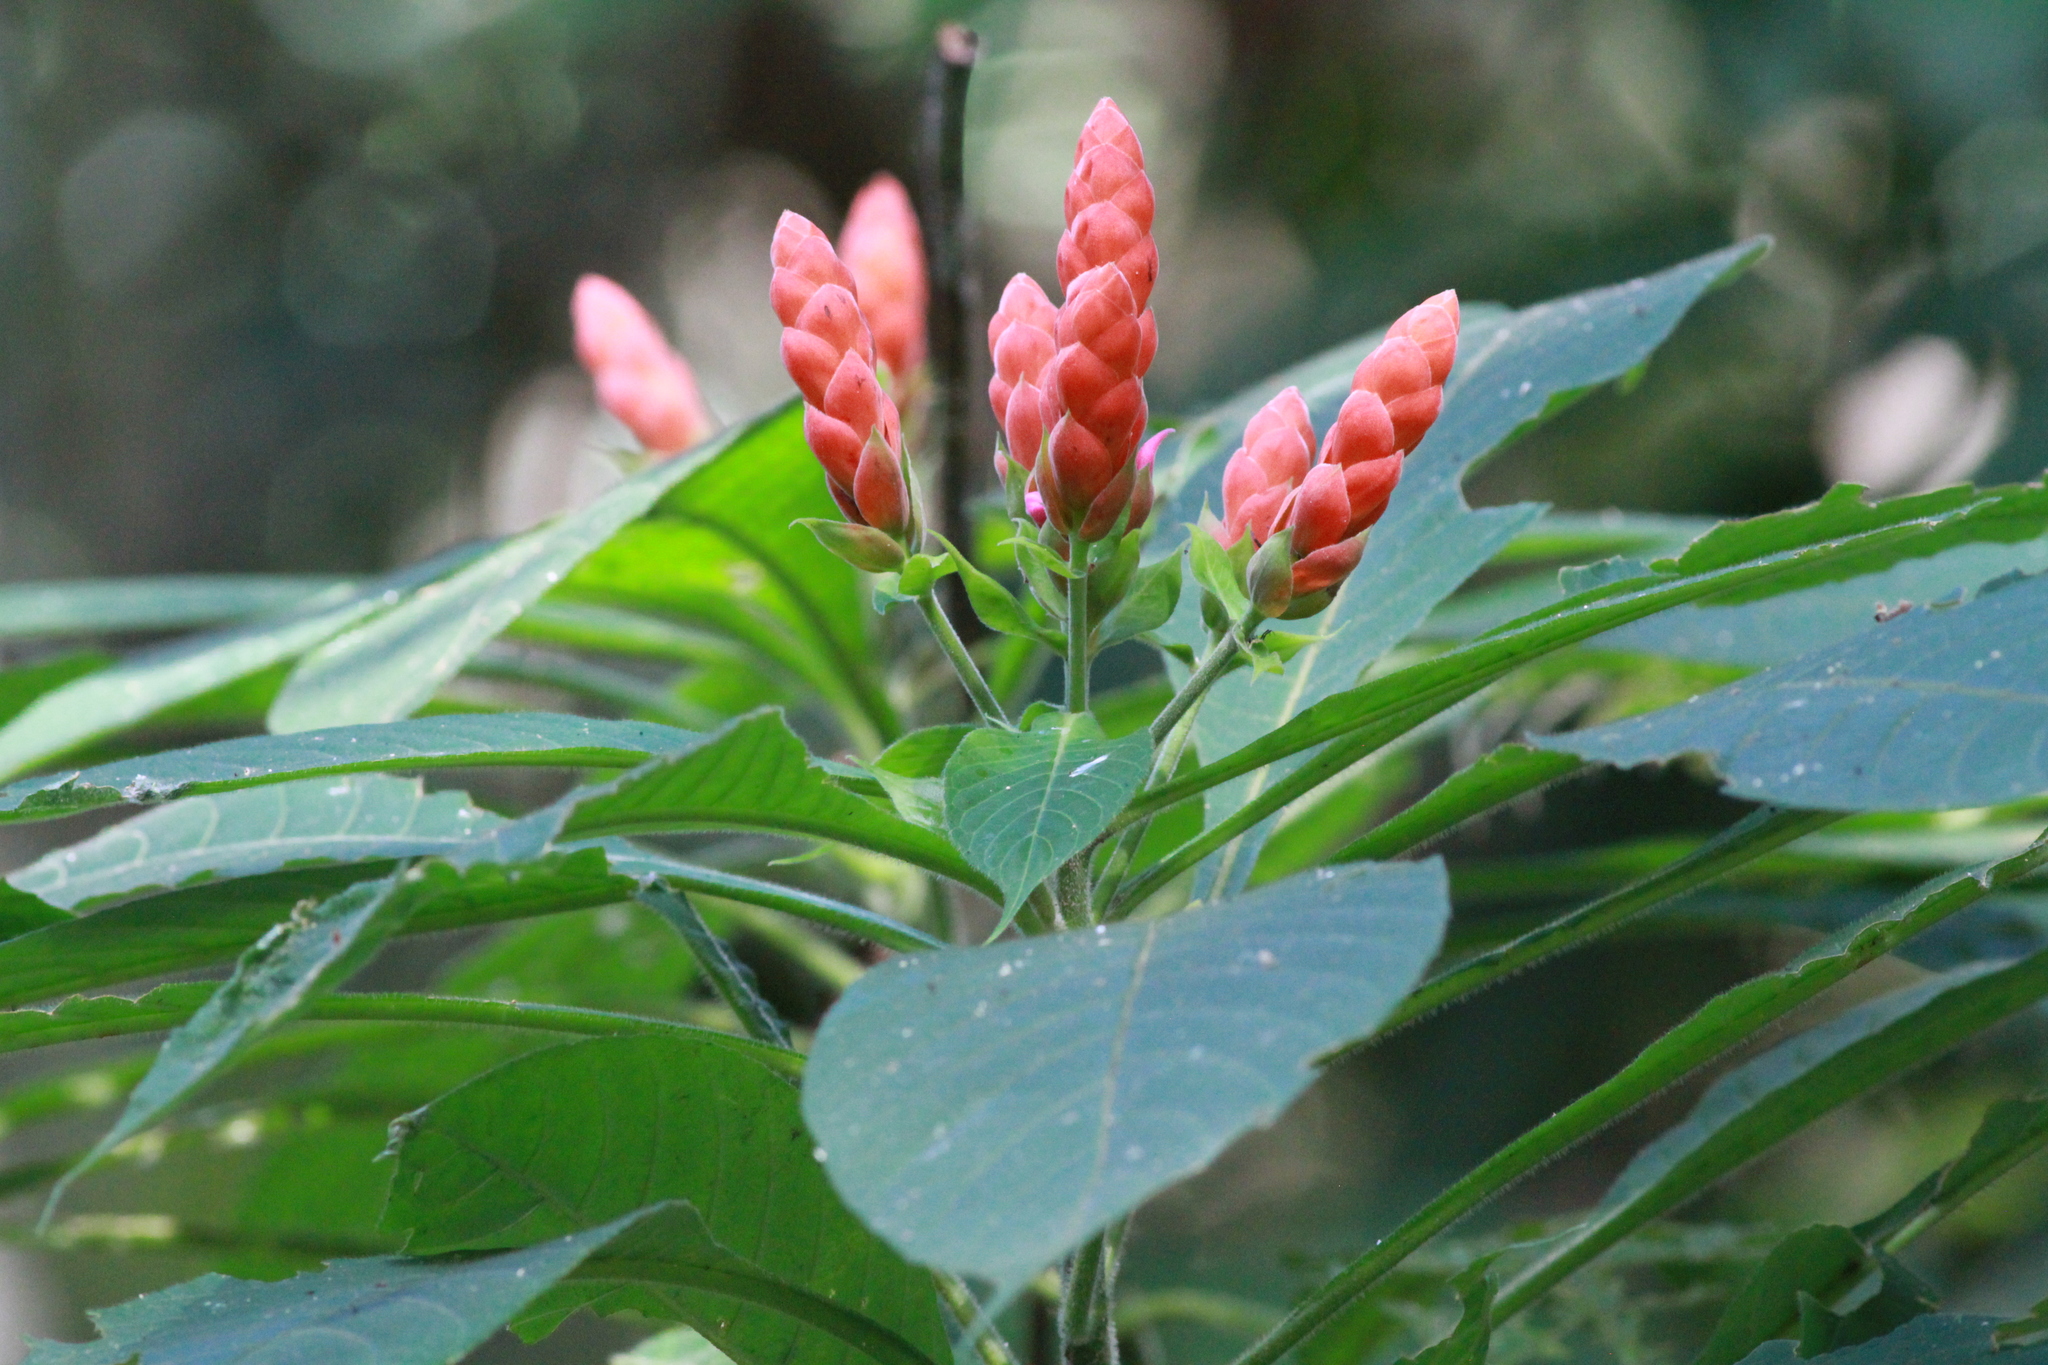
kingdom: Plantae
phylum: Tracheophyta
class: Magnoliopsida
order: Lamiales
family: Acanthaceae
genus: Aphelandra
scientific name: Aphelandra sinclairiana
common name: Coral aphelandra
